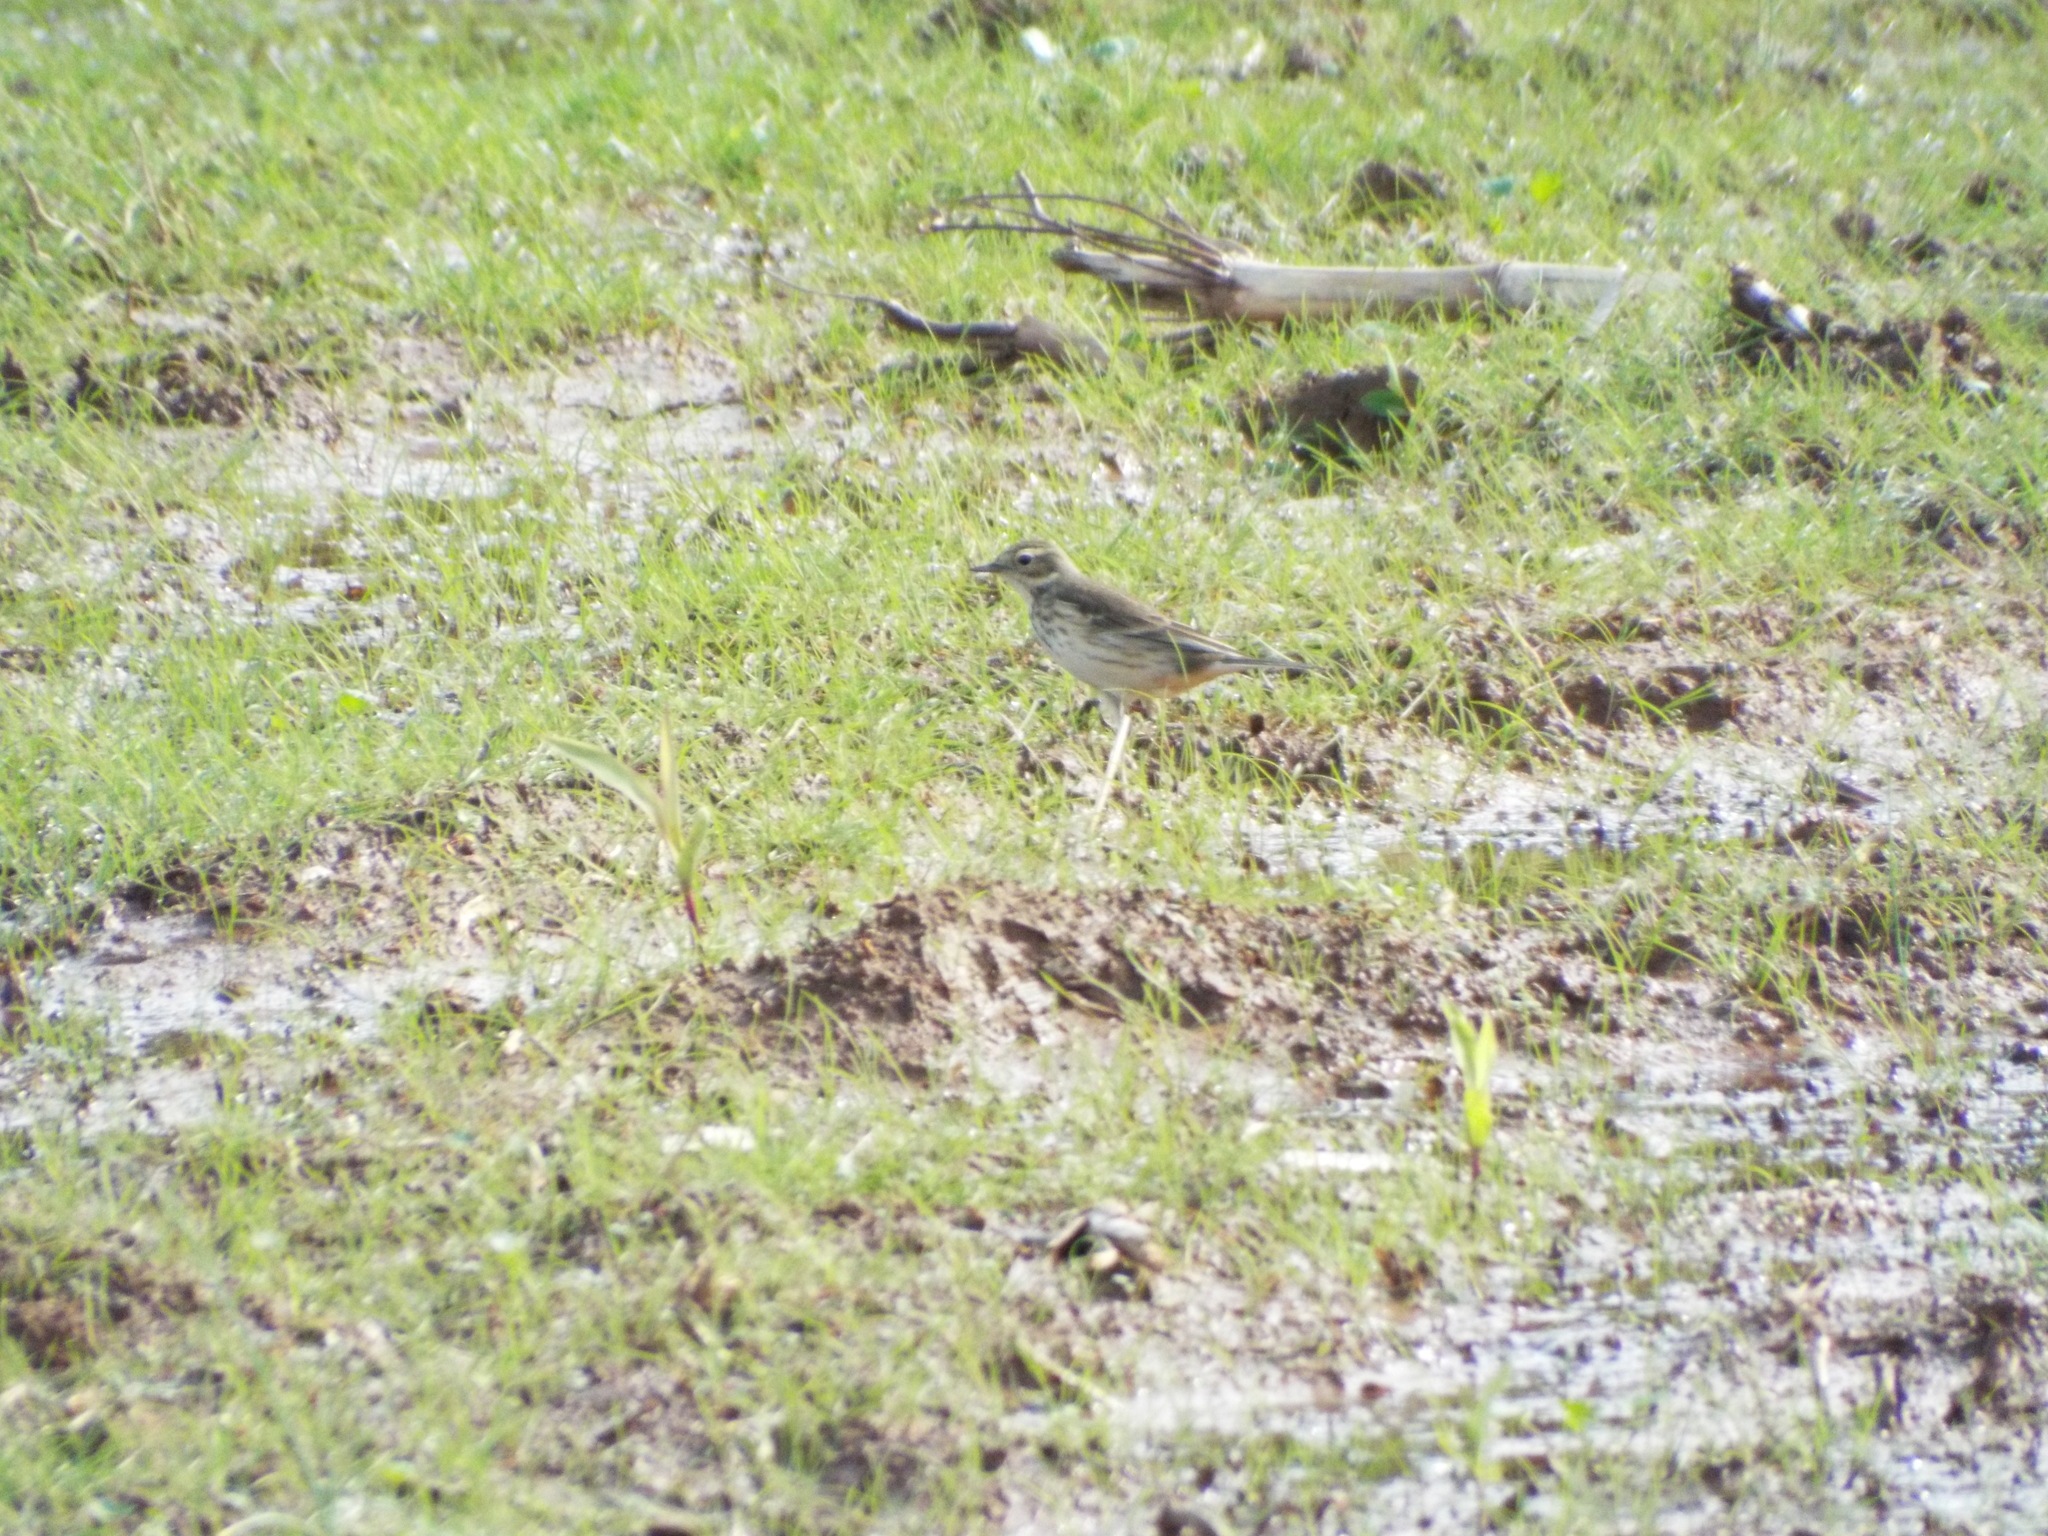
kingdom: Animalia
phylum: Chordata
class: Aves
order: Passeriformes
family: Motacillidae
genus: Anthus
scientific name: Anthus rubescens
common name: Buff-bellied pipit
